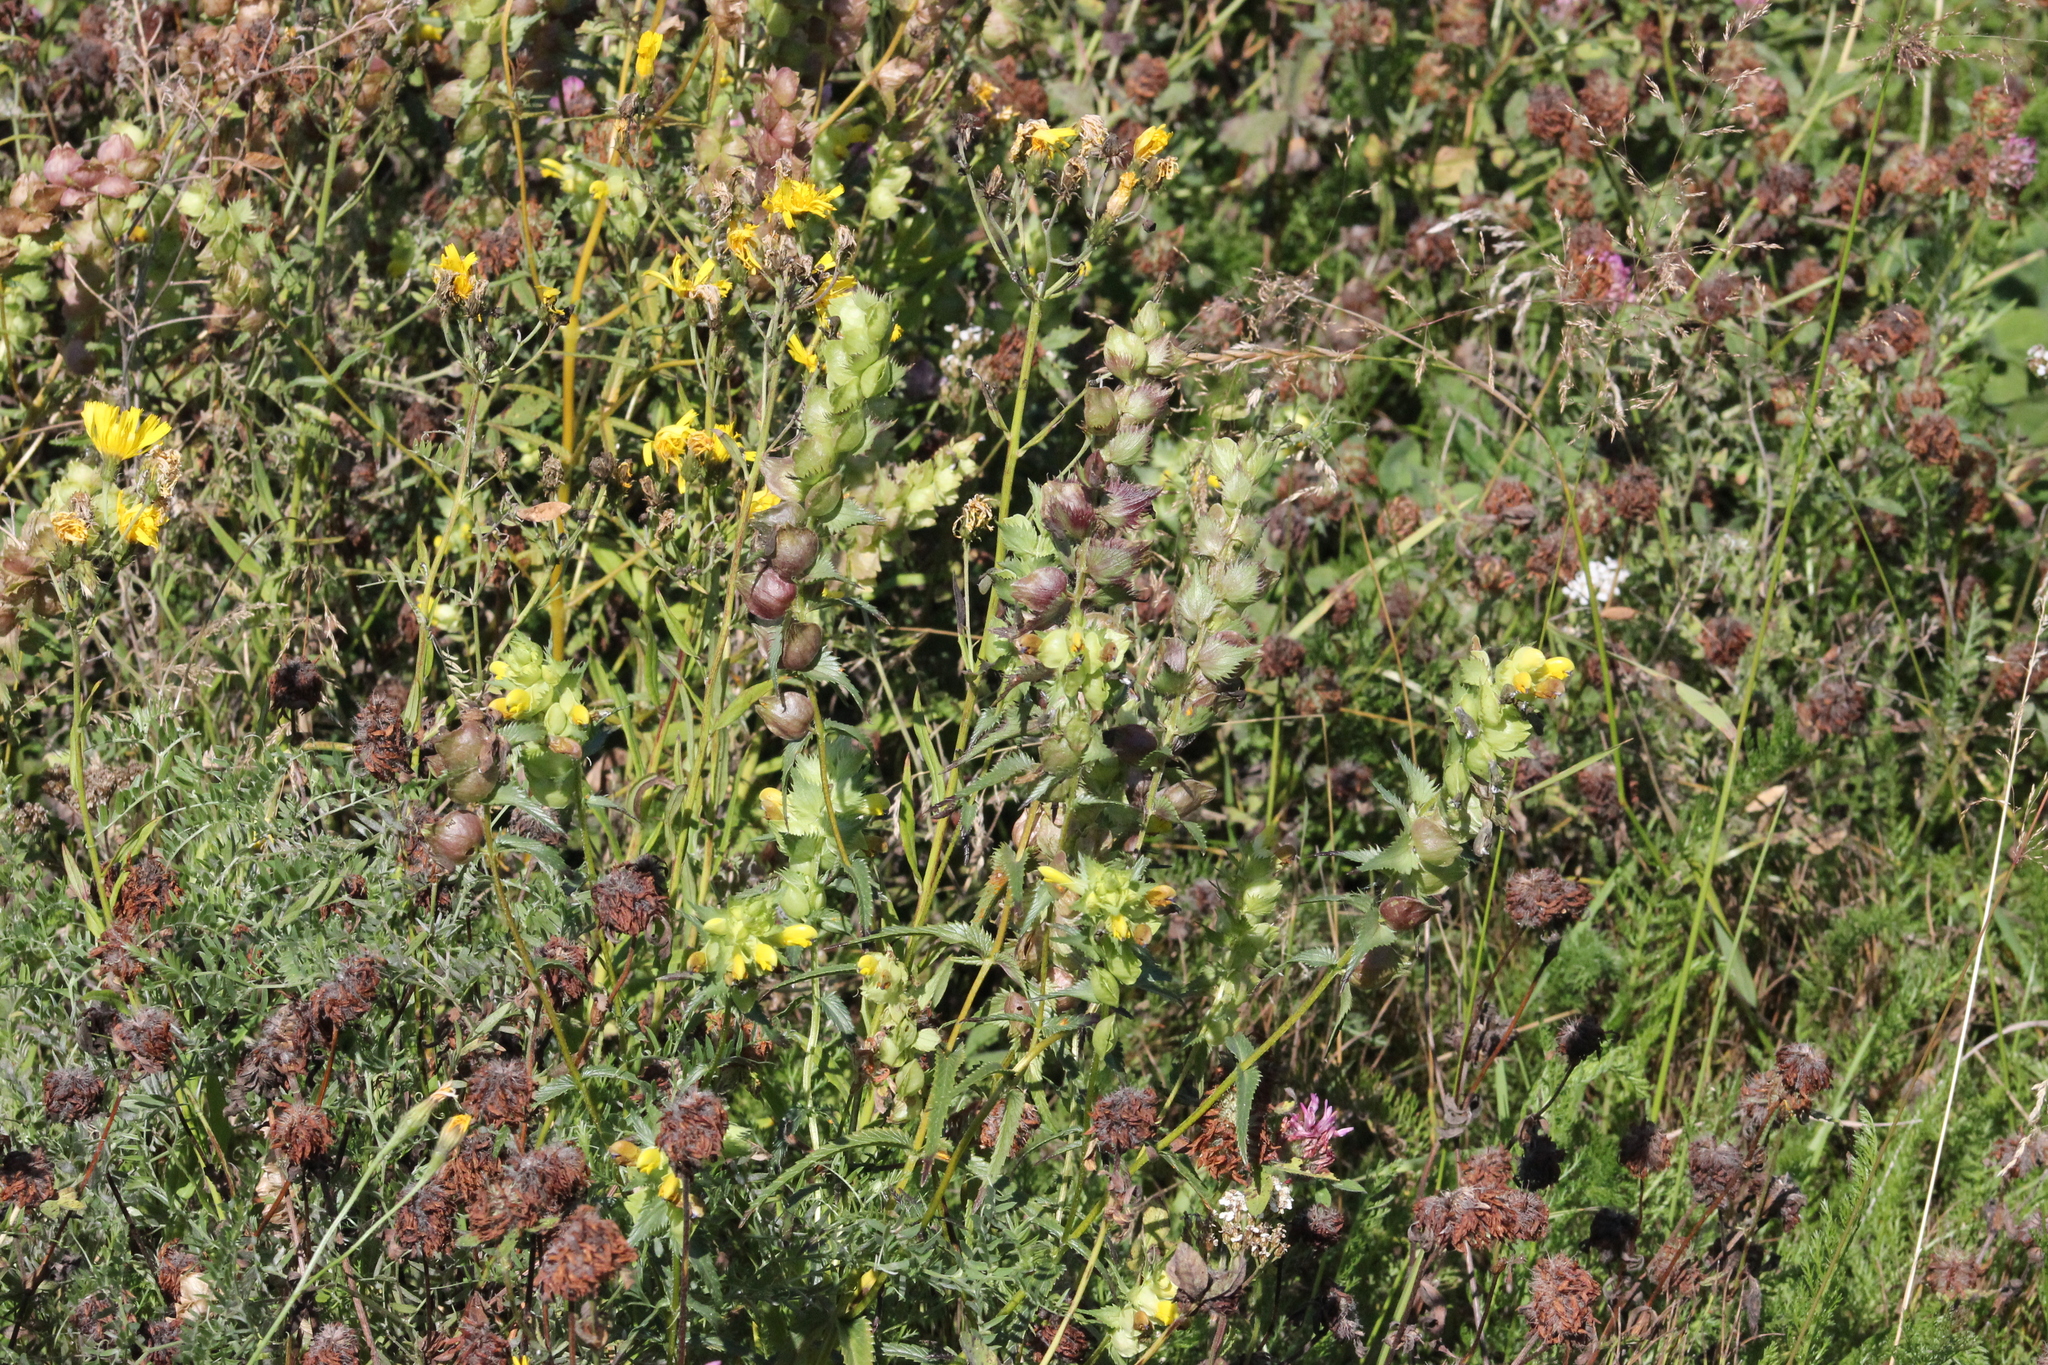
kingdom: Plantae
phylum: Tracheophyta
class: Magnoliopsida
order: Lamiales
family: Orobanchaceae
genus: Rhinanthus
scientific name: Rhinanthus serotinus
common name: Late-flowering yellow rattle
